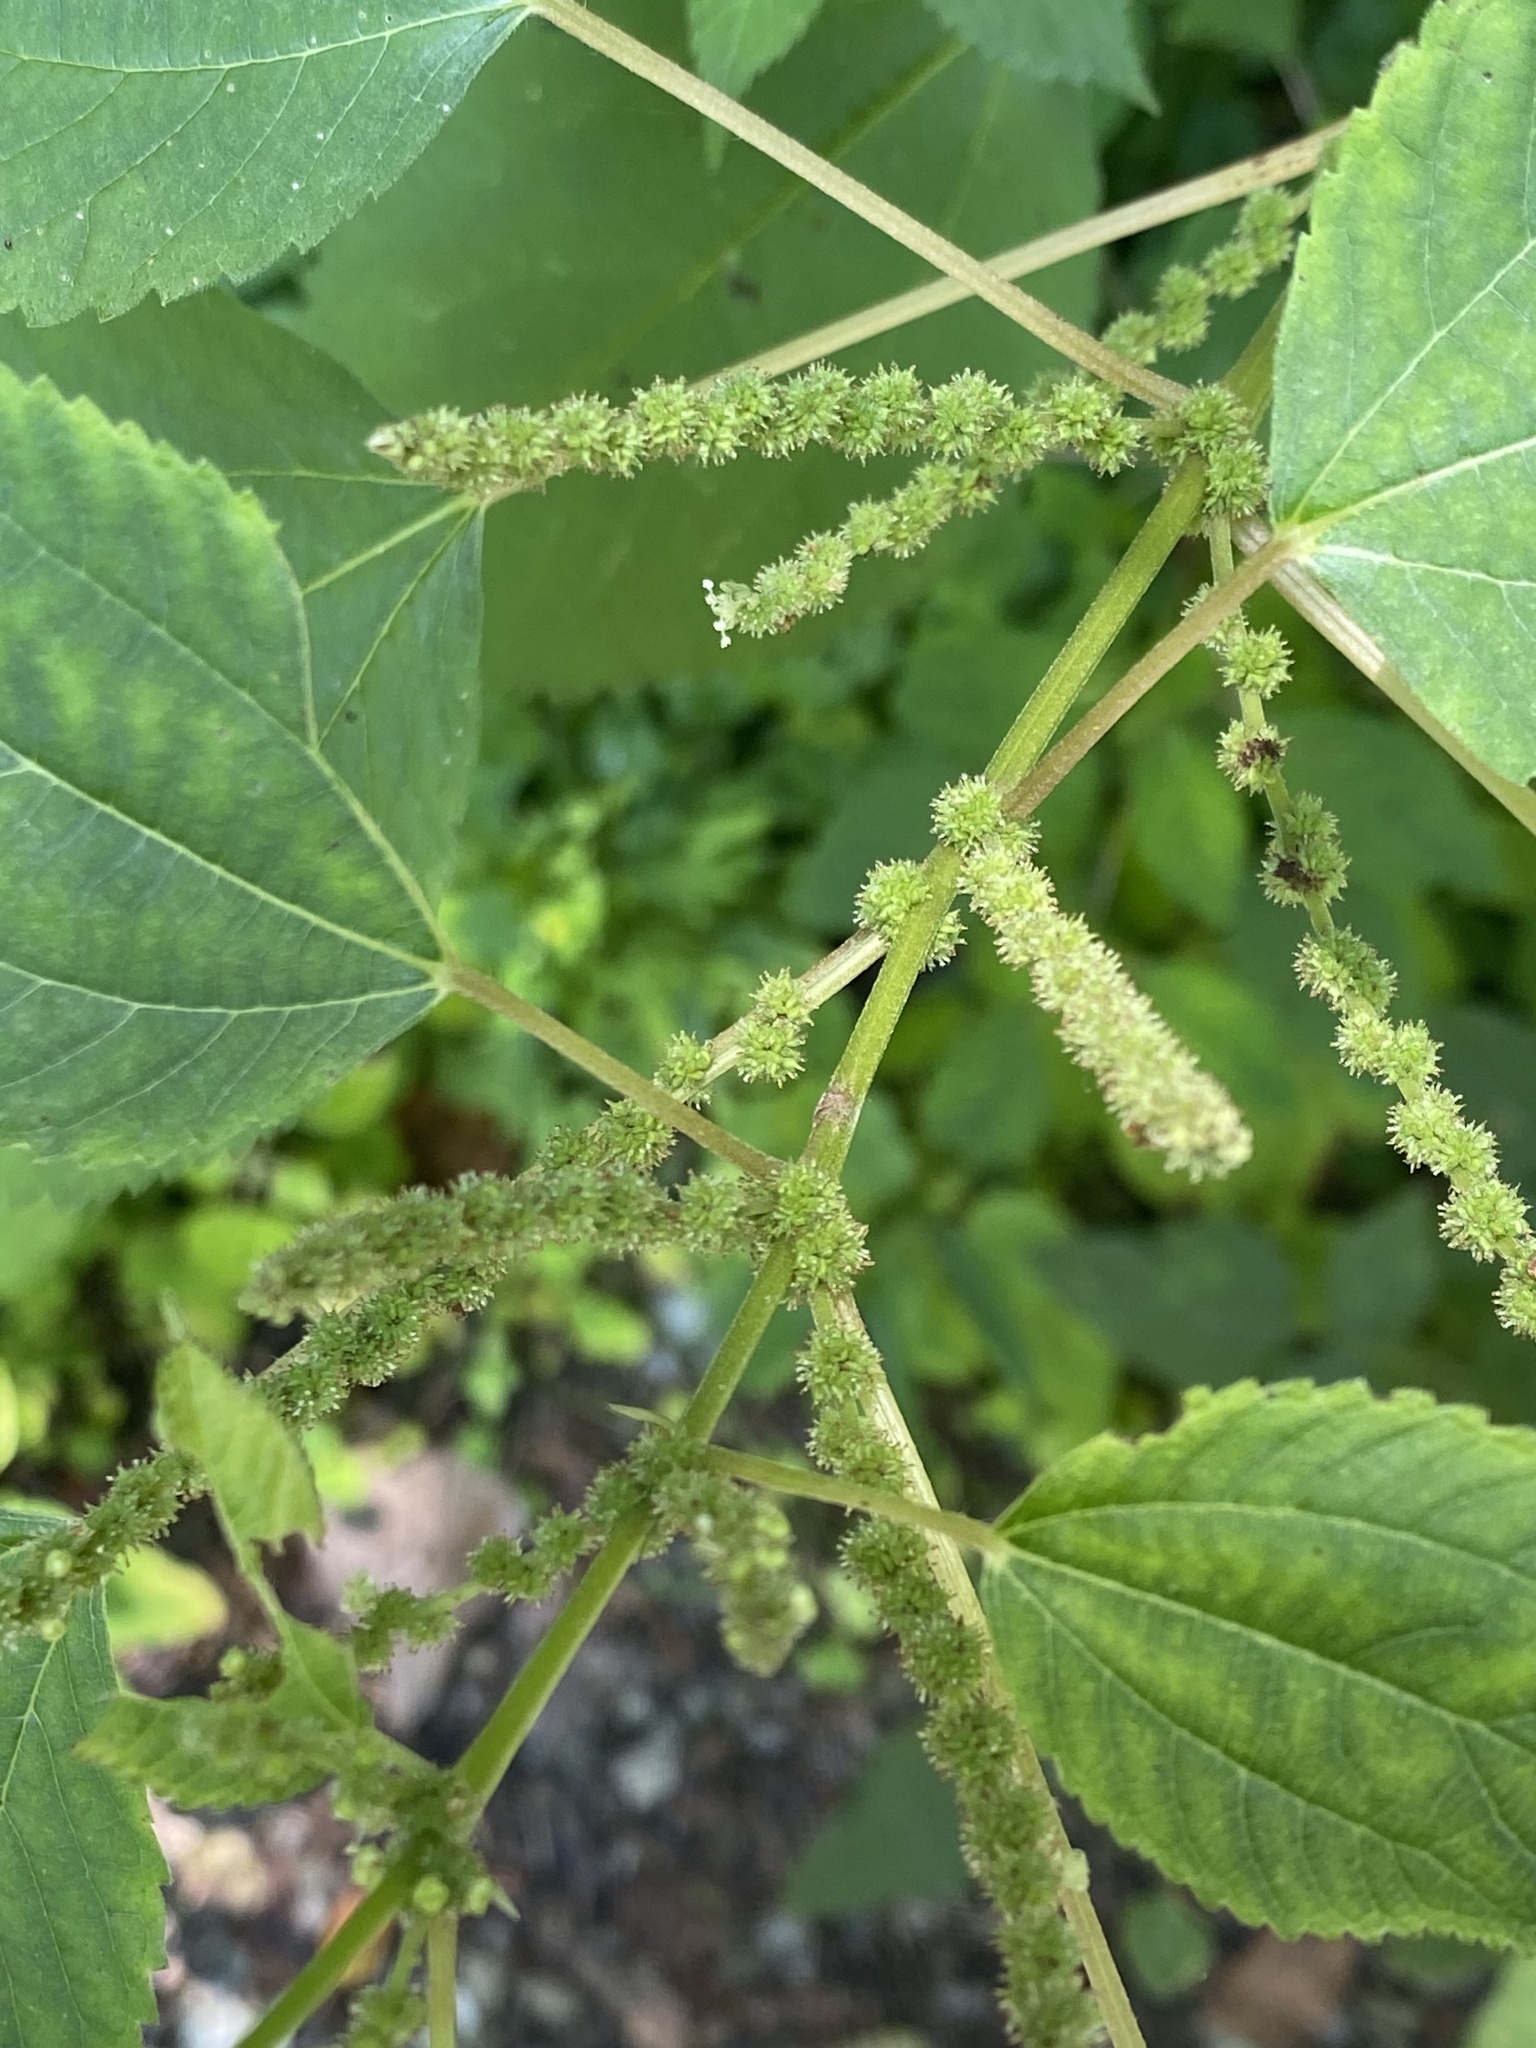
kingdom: Plantae
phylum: Tracheophyta
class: Magnoliopsida
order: Rosales
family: Urticaceae
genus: Boehmeria
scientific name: Boehmeria cylindrica
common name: Bog-hemp
